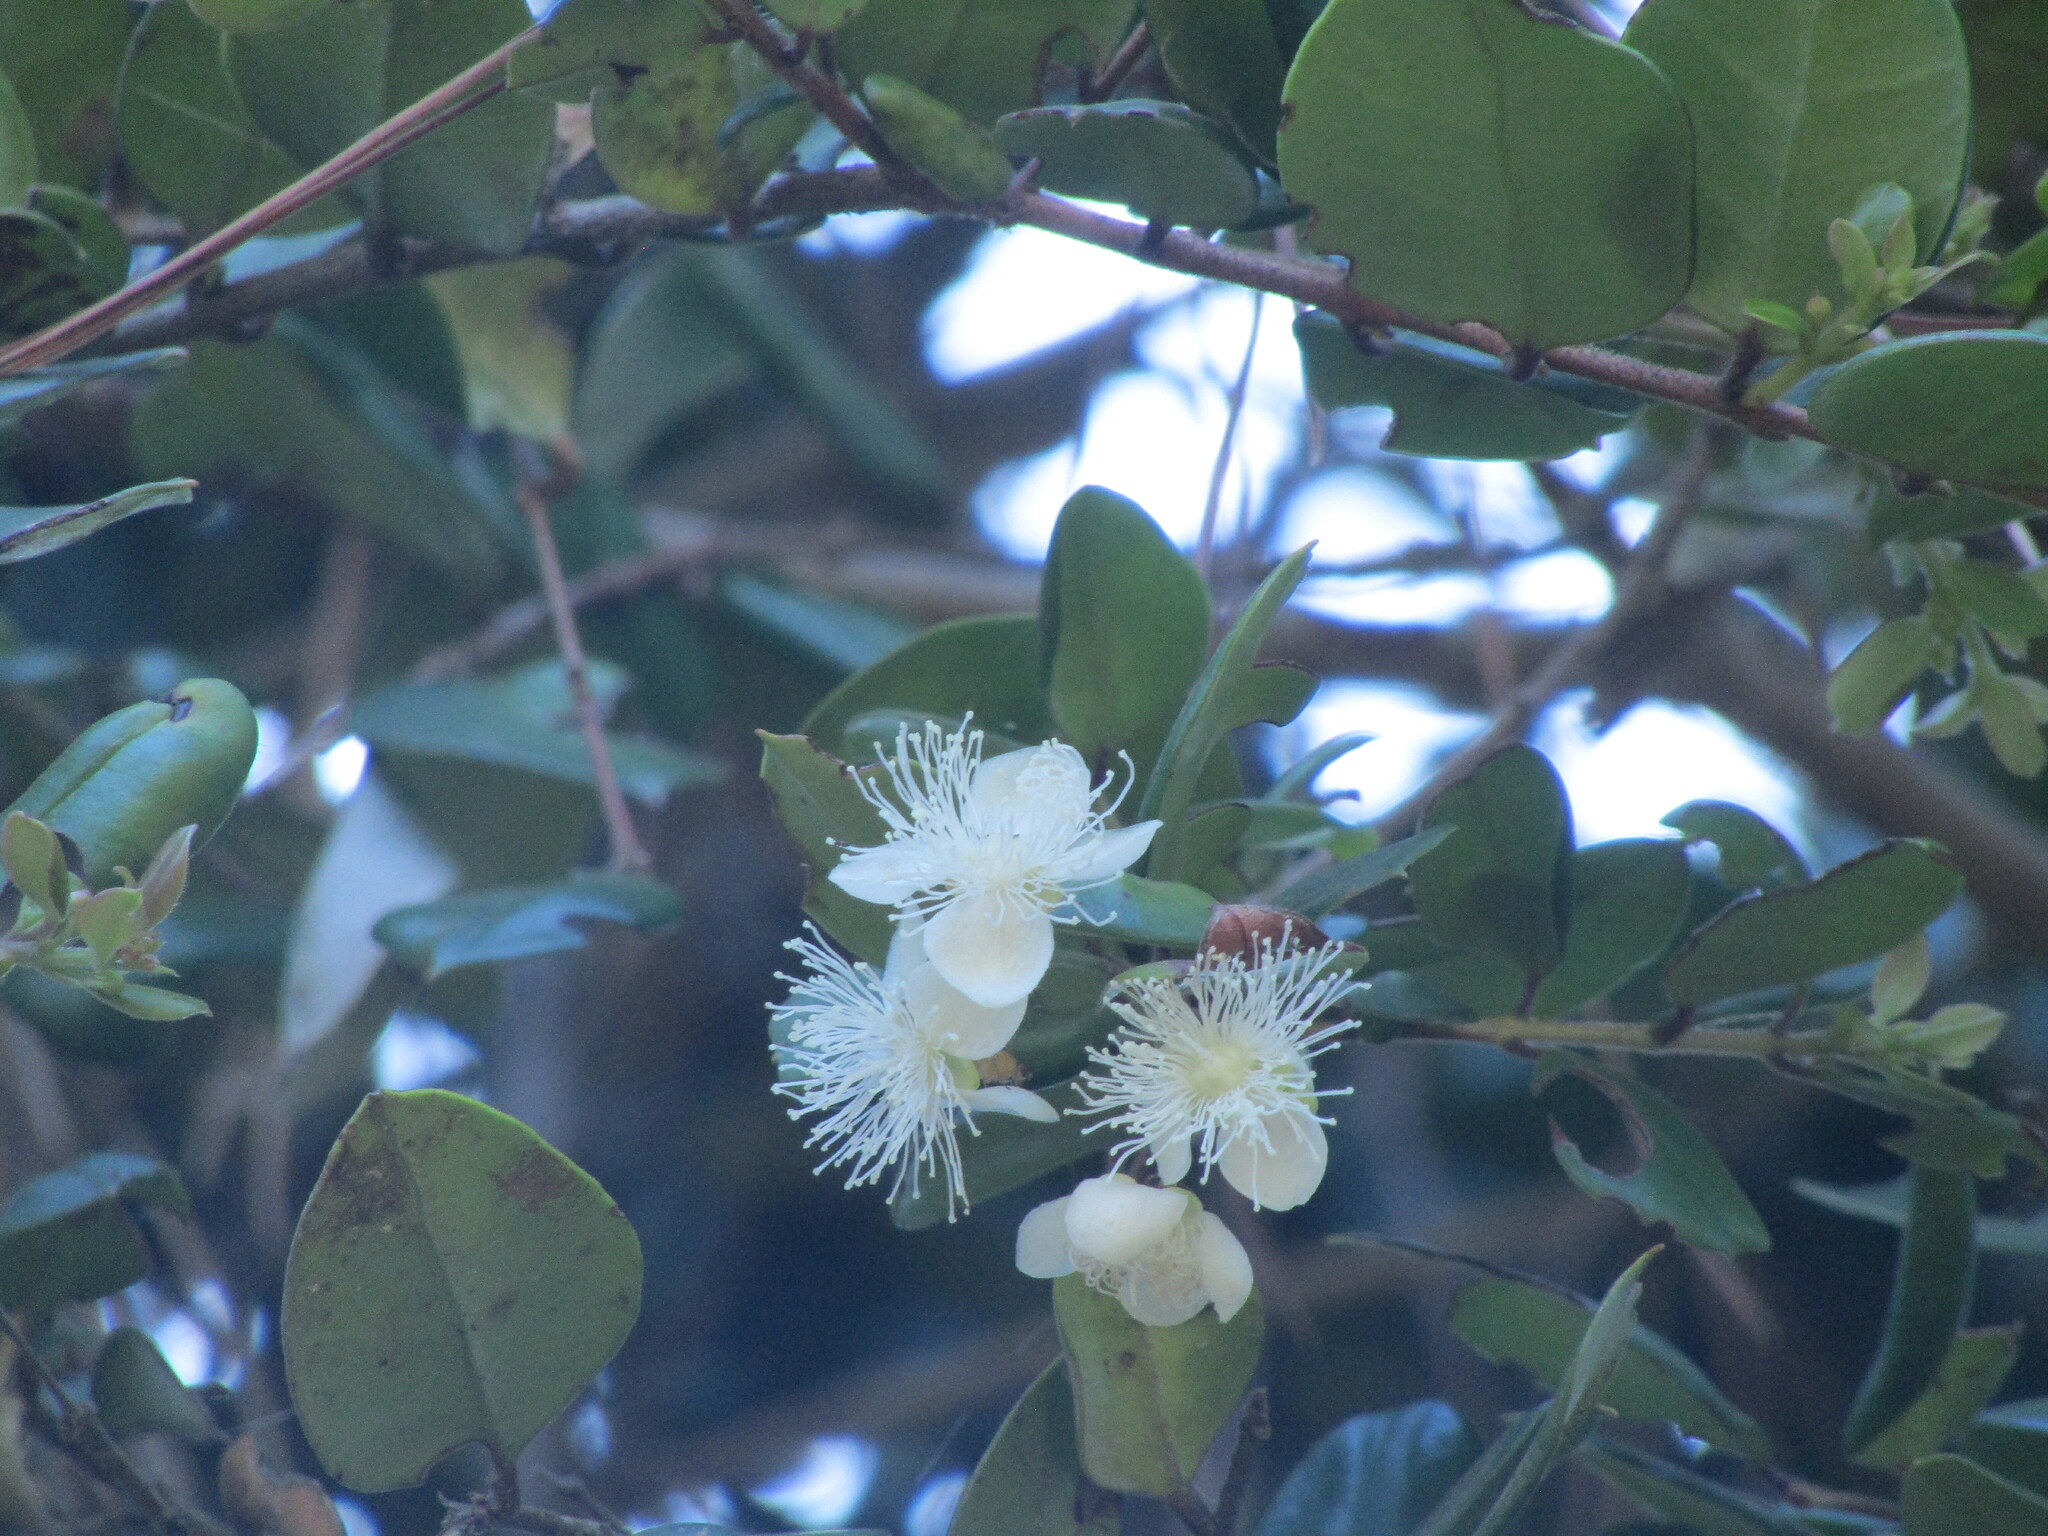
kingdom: Plantae
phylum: Tracheophyta
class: Magnoliopsida
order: Myrtales
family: Myrtaceae
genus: Luma
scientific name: Luma apiculata
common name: Chilean myrtle
